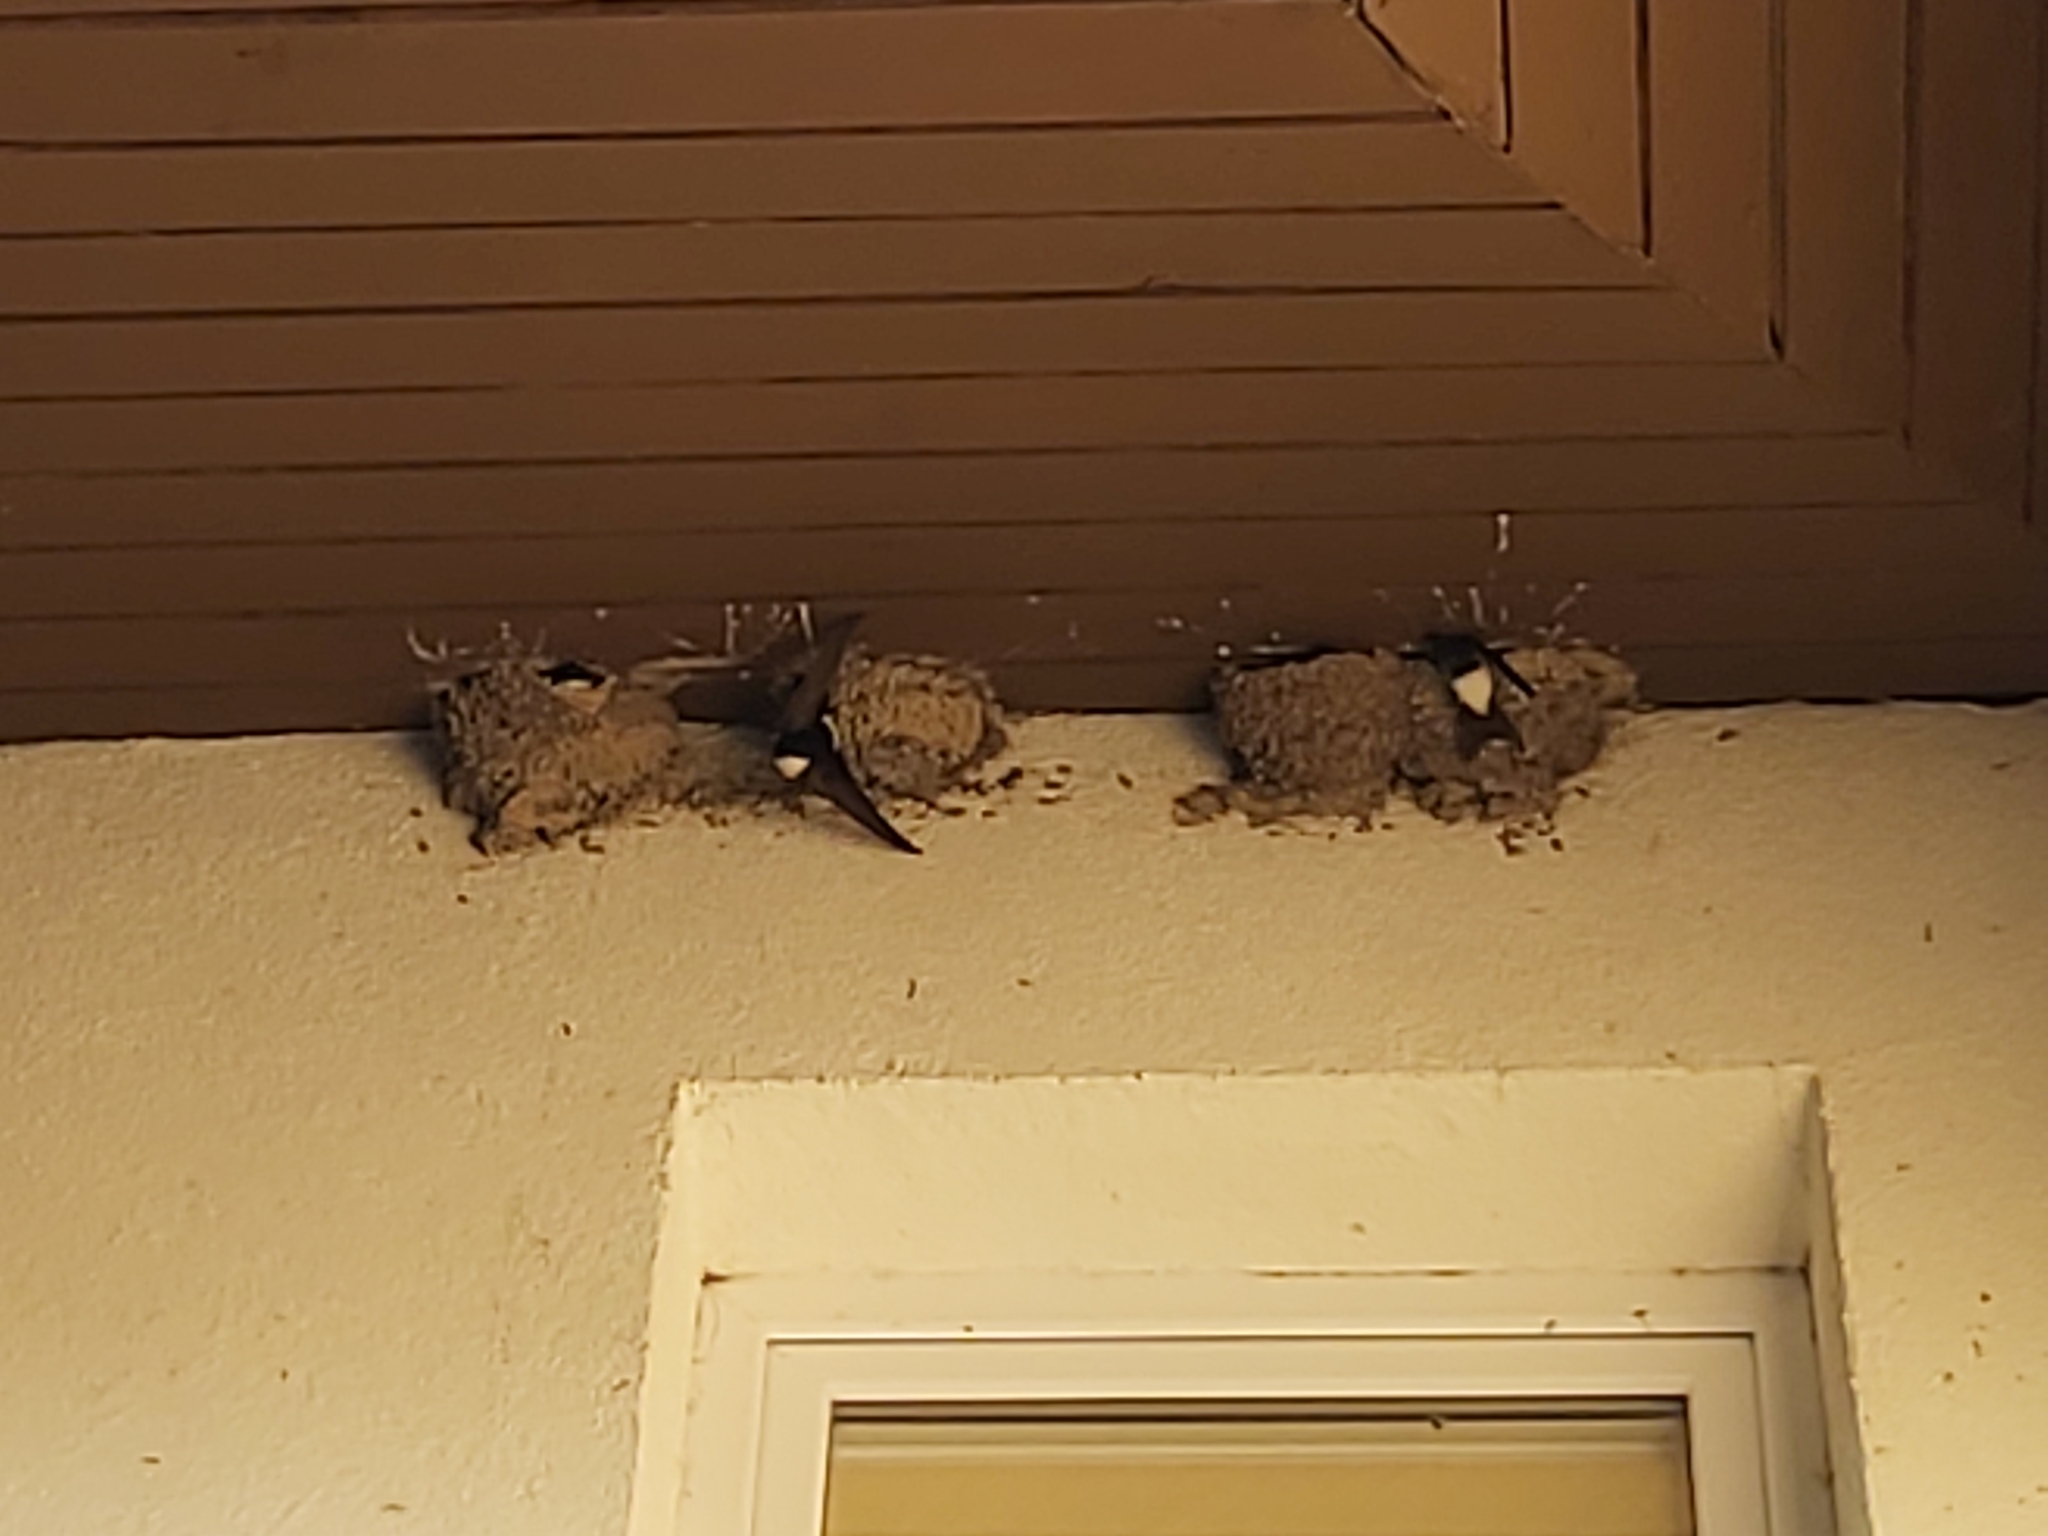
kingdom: Animalia
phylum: Chordata
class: Aves
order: Passeriformes
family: Hirundinidae
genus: Delichon
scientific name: Delichon urbicum
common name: Common house martin
